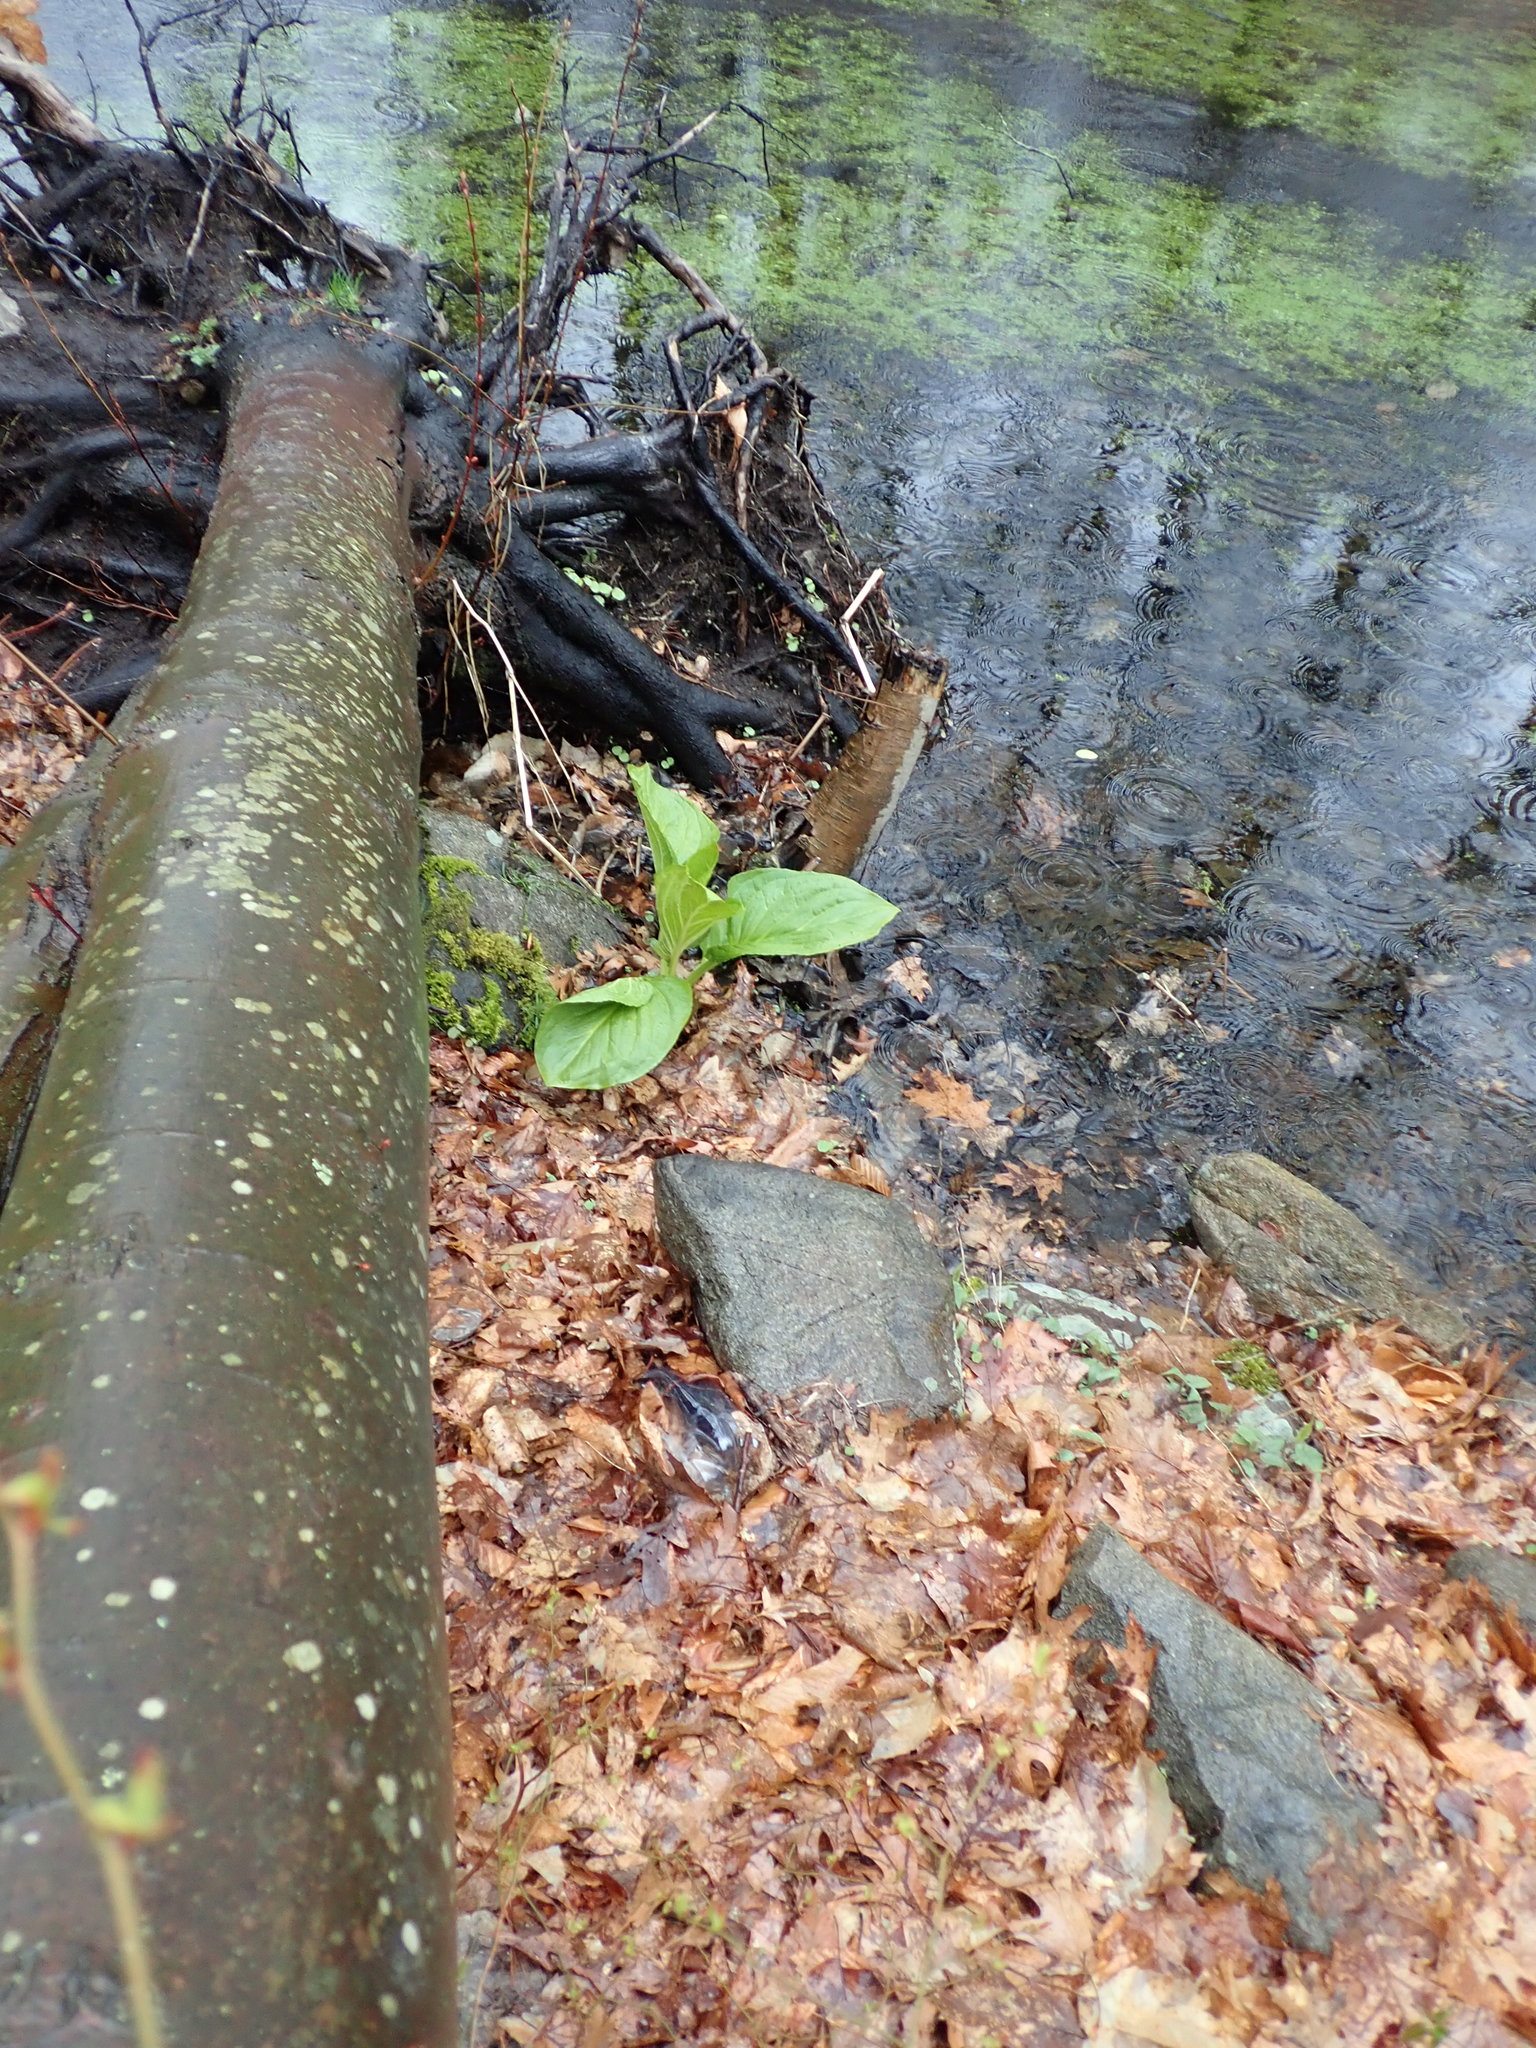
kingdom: Plantae
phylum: Tracheophyta
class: Liliopsida
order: Alismatales
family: Araceae
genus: Symplocarpus
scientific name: Symplocarpus foetidus
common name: Eastern skunk cabbage
